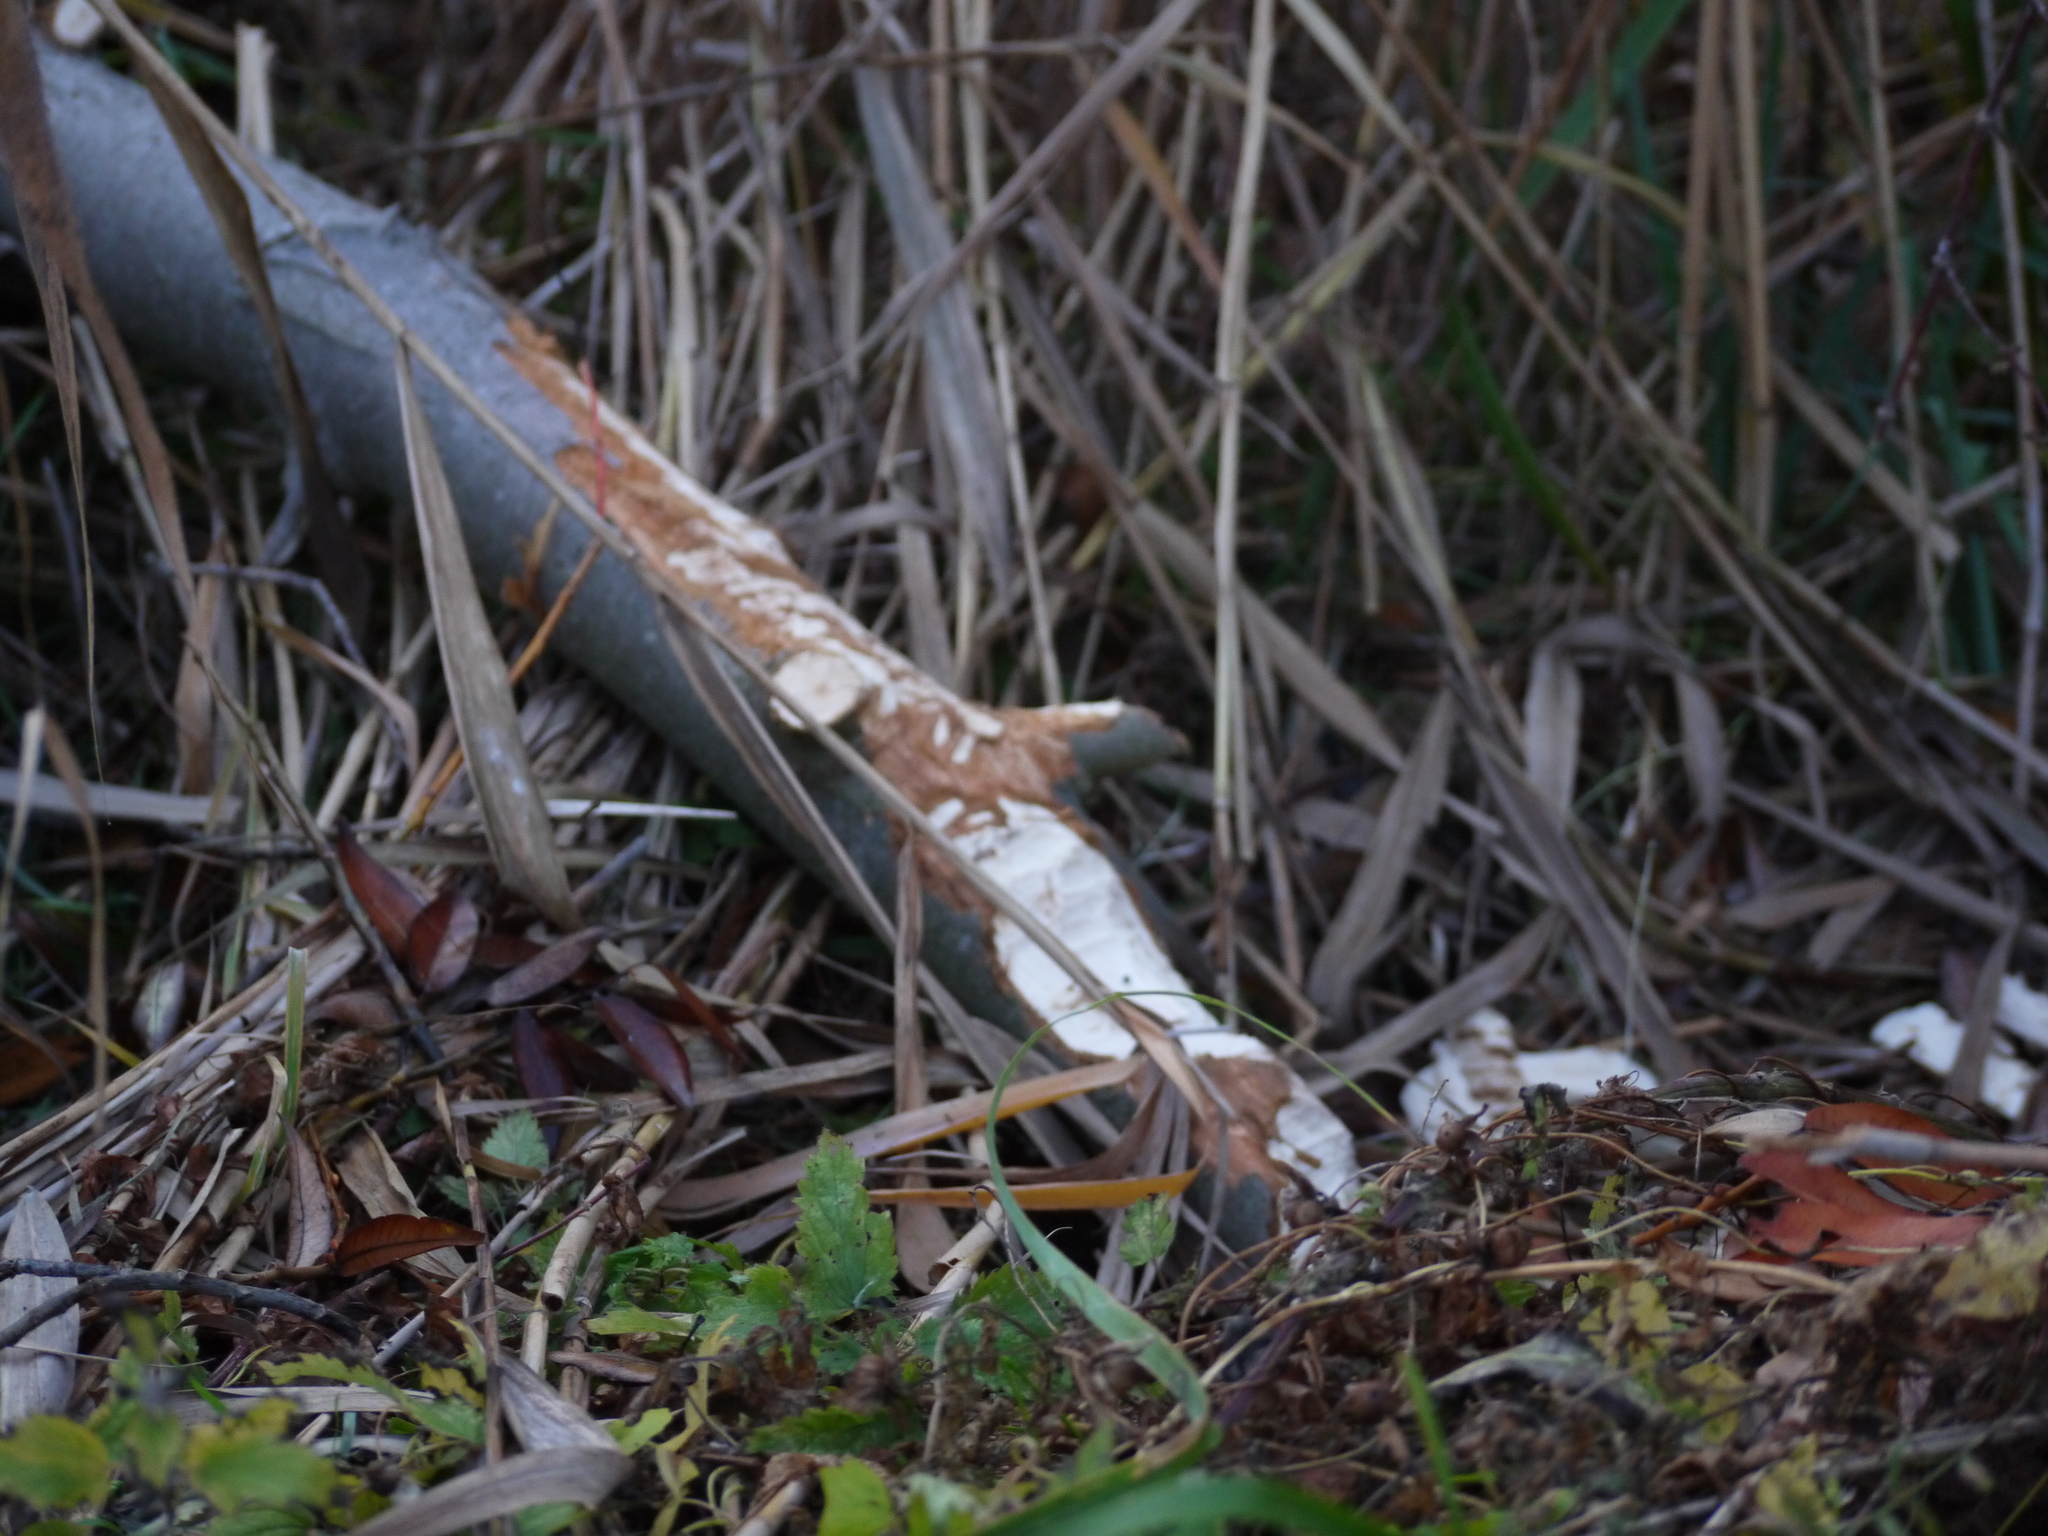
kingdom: Animalia
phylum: Chordata
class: Mammalia
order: Rodentia
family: Castoridae
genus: Castor
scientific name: Castor fiber
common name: Eurasian beaver
